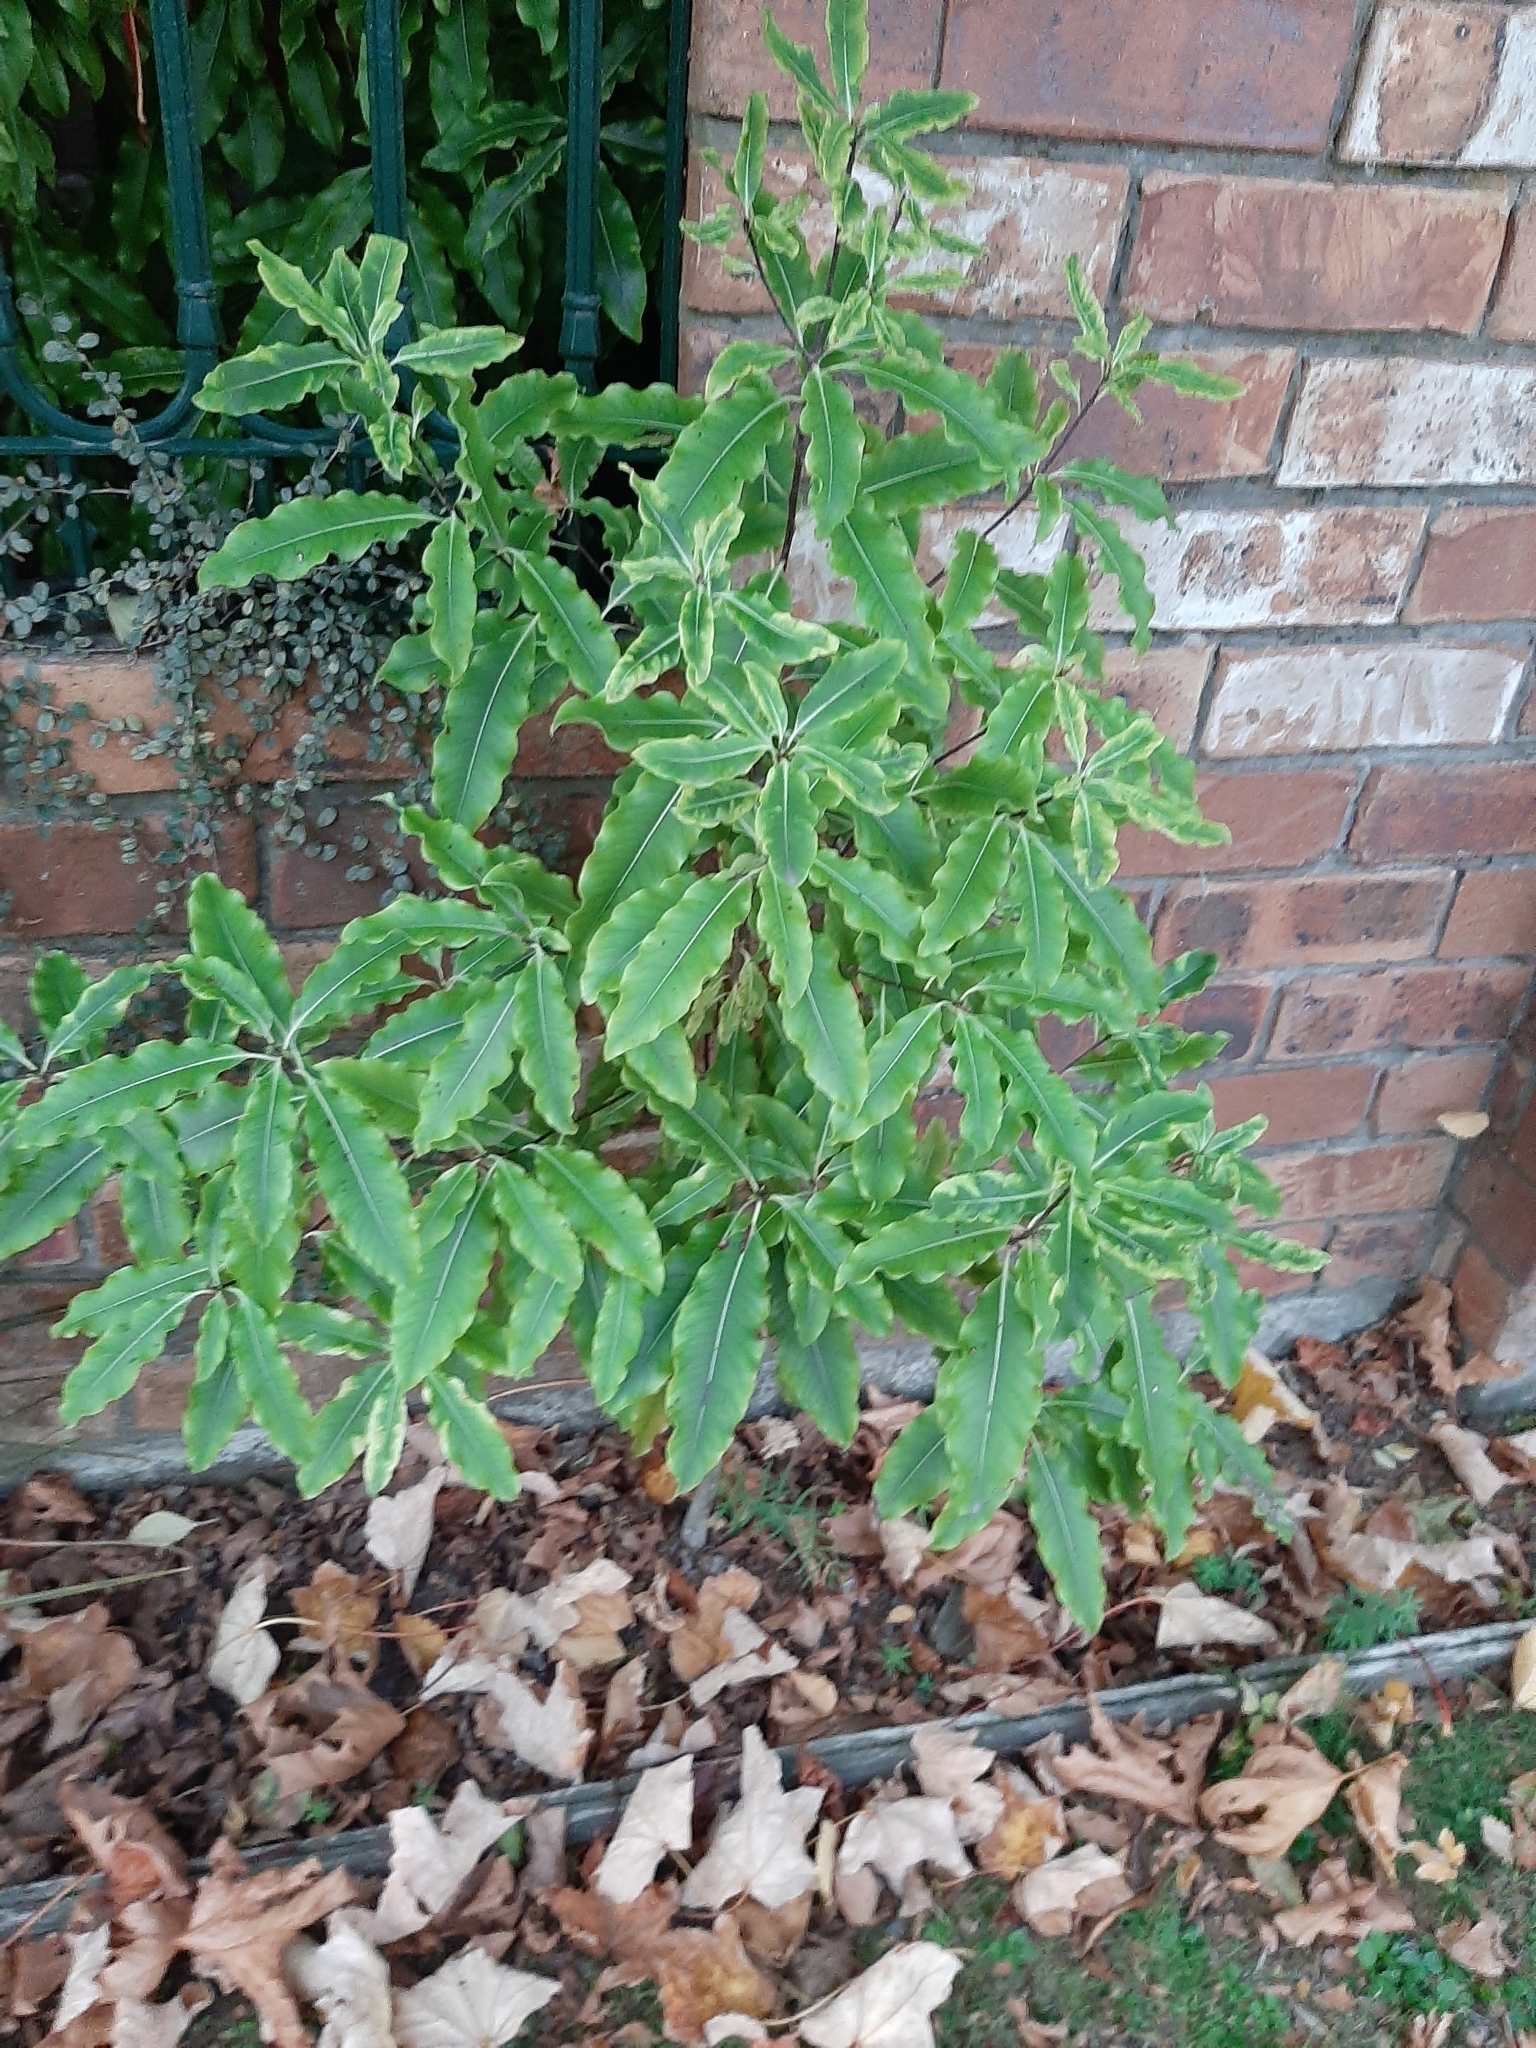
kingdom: Plantae
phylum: Tracheophyta
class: Magnoliopsida
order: Apiales
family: Pittosporaceae
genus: Pittosporum
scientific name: Pittosporum eugenioides
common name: Lemonwood
